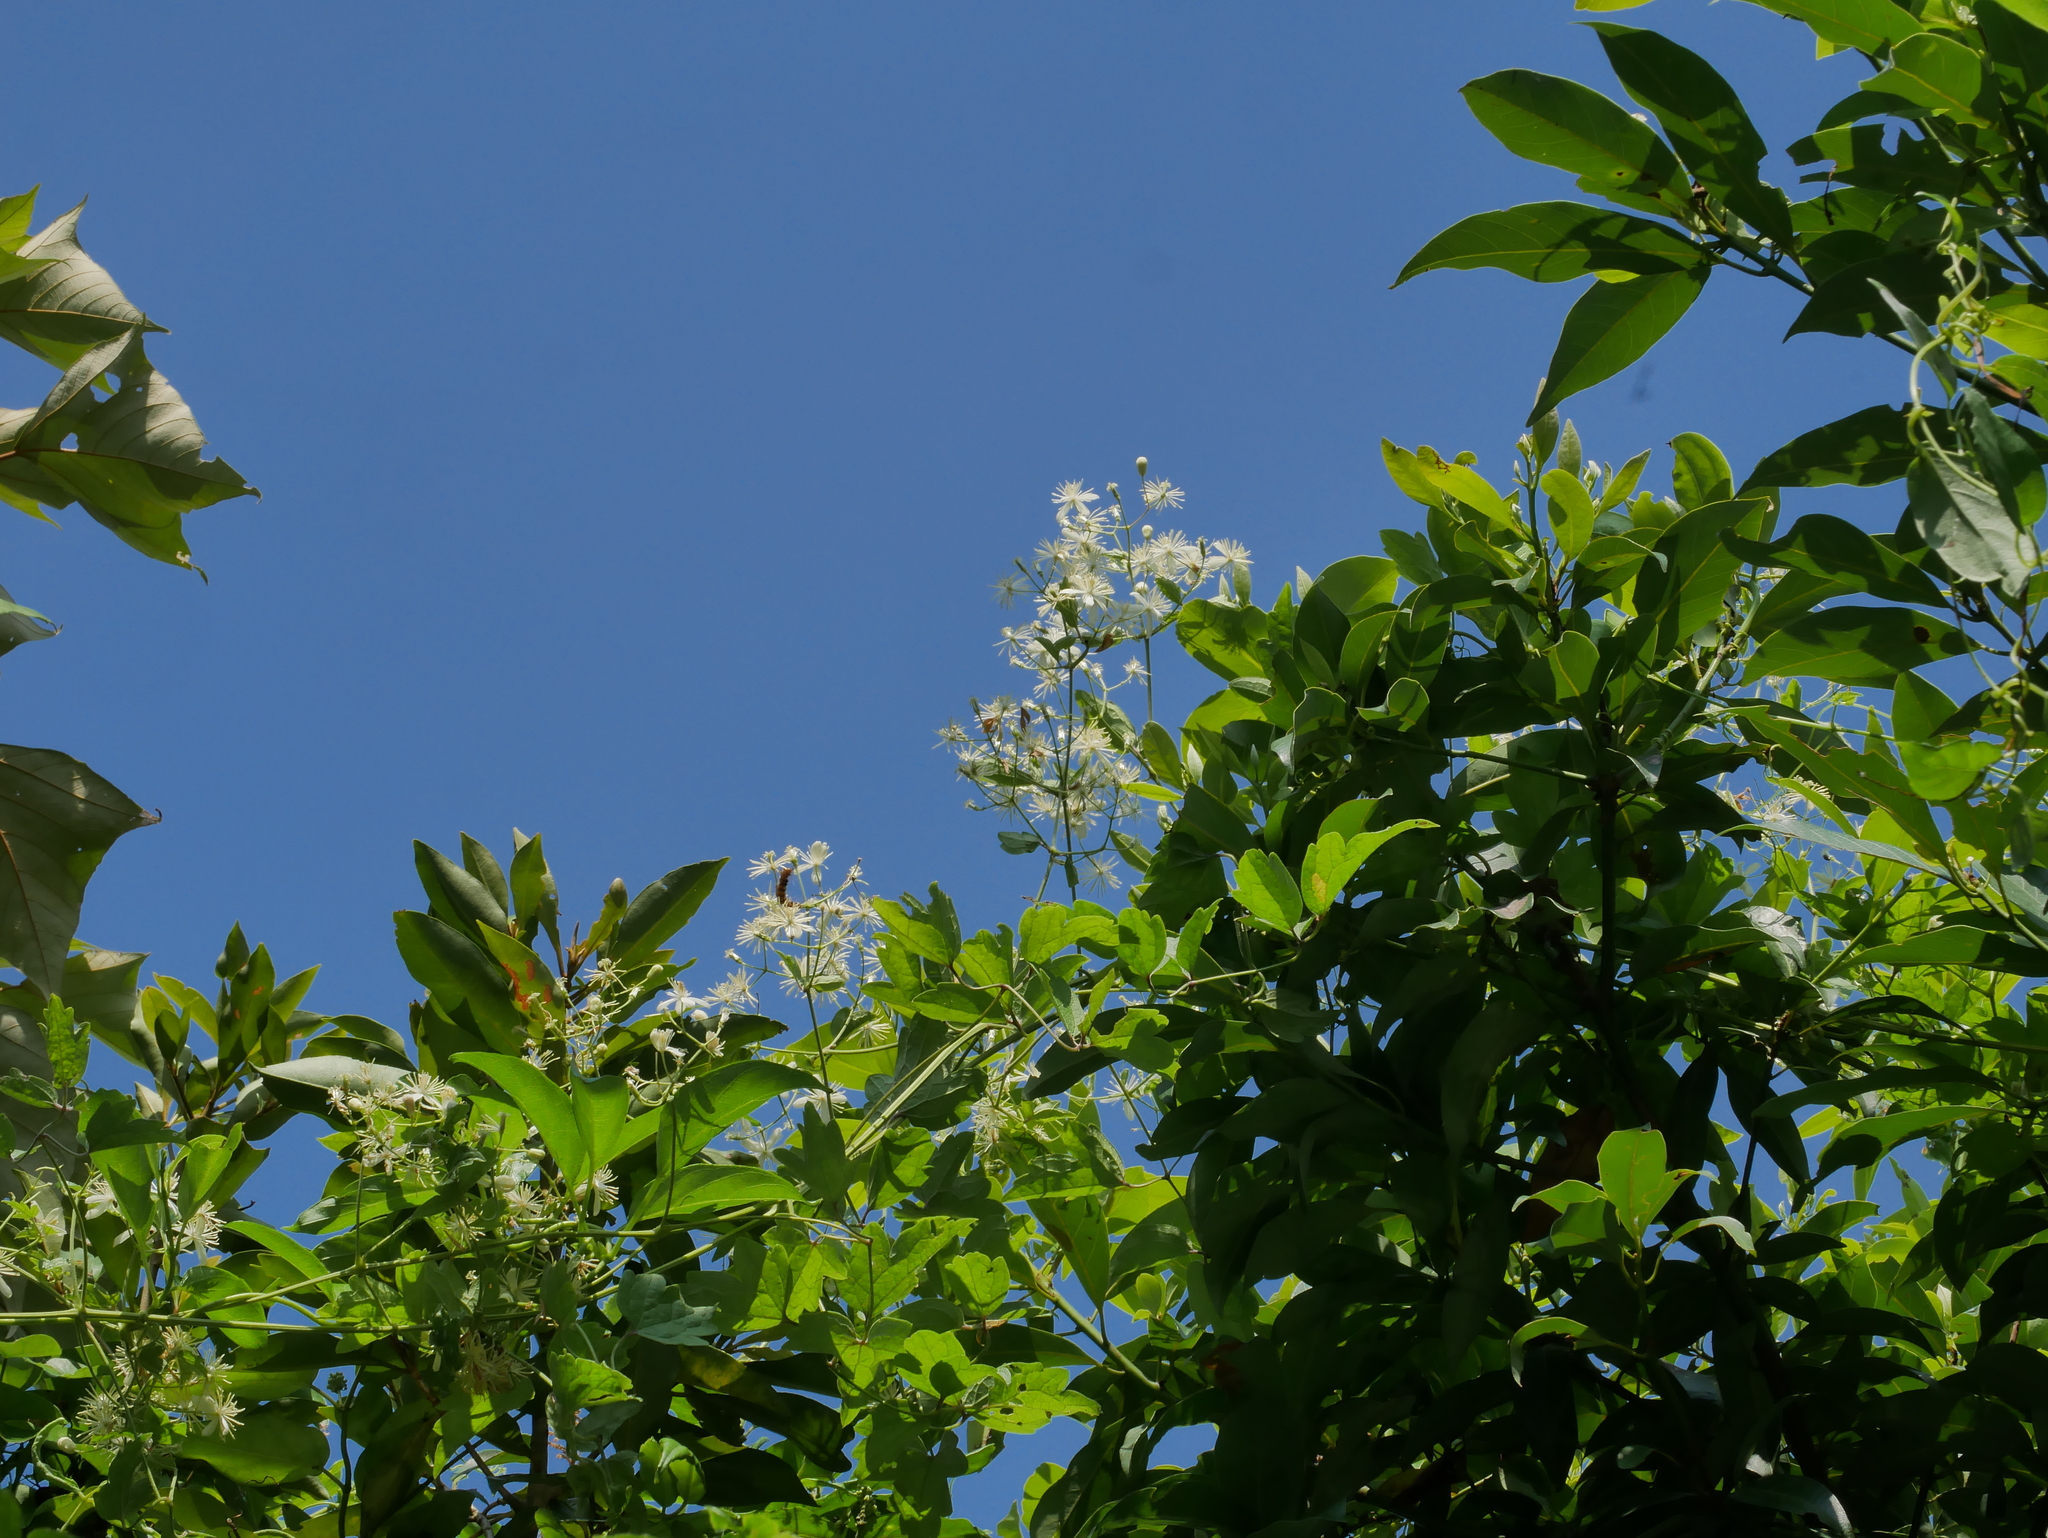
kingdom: Plantae
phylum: Tracheophyta
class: Magnoliopsida
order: Ranunculales
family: Ranunculaceae
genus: Clematis
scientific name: Clematis grata
